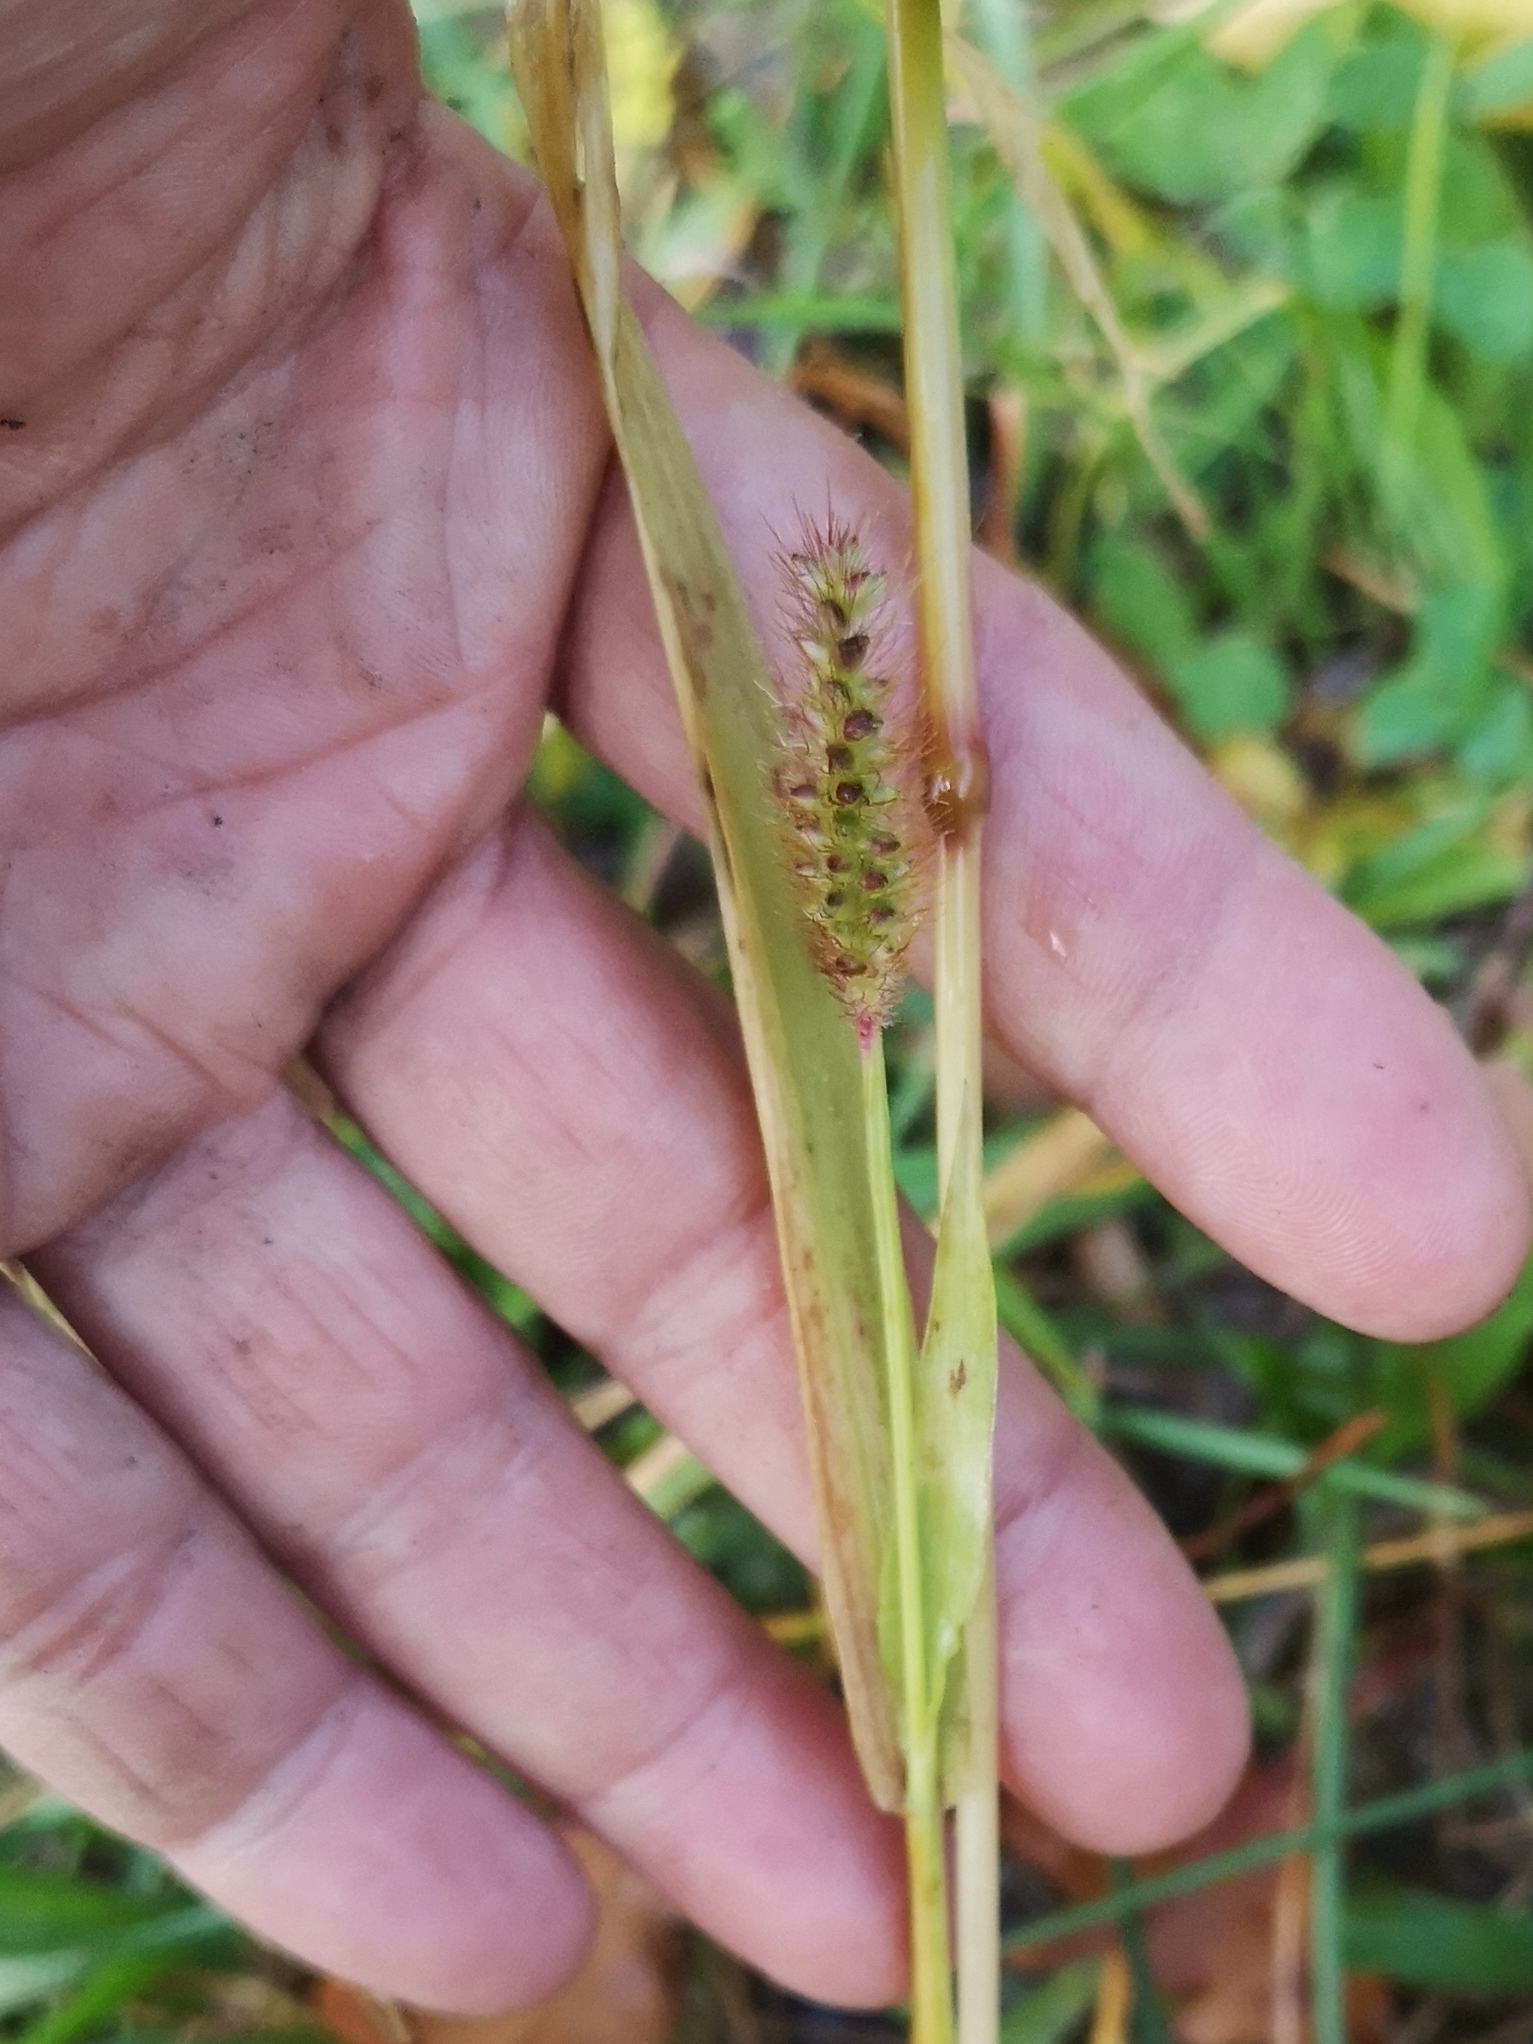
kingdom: Plantae
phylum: Tracheophyta
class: Liliopsida
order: Poales
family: Poaceae
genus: Setaria
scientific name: Setaria pumila
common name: Yellow bristle-grass
